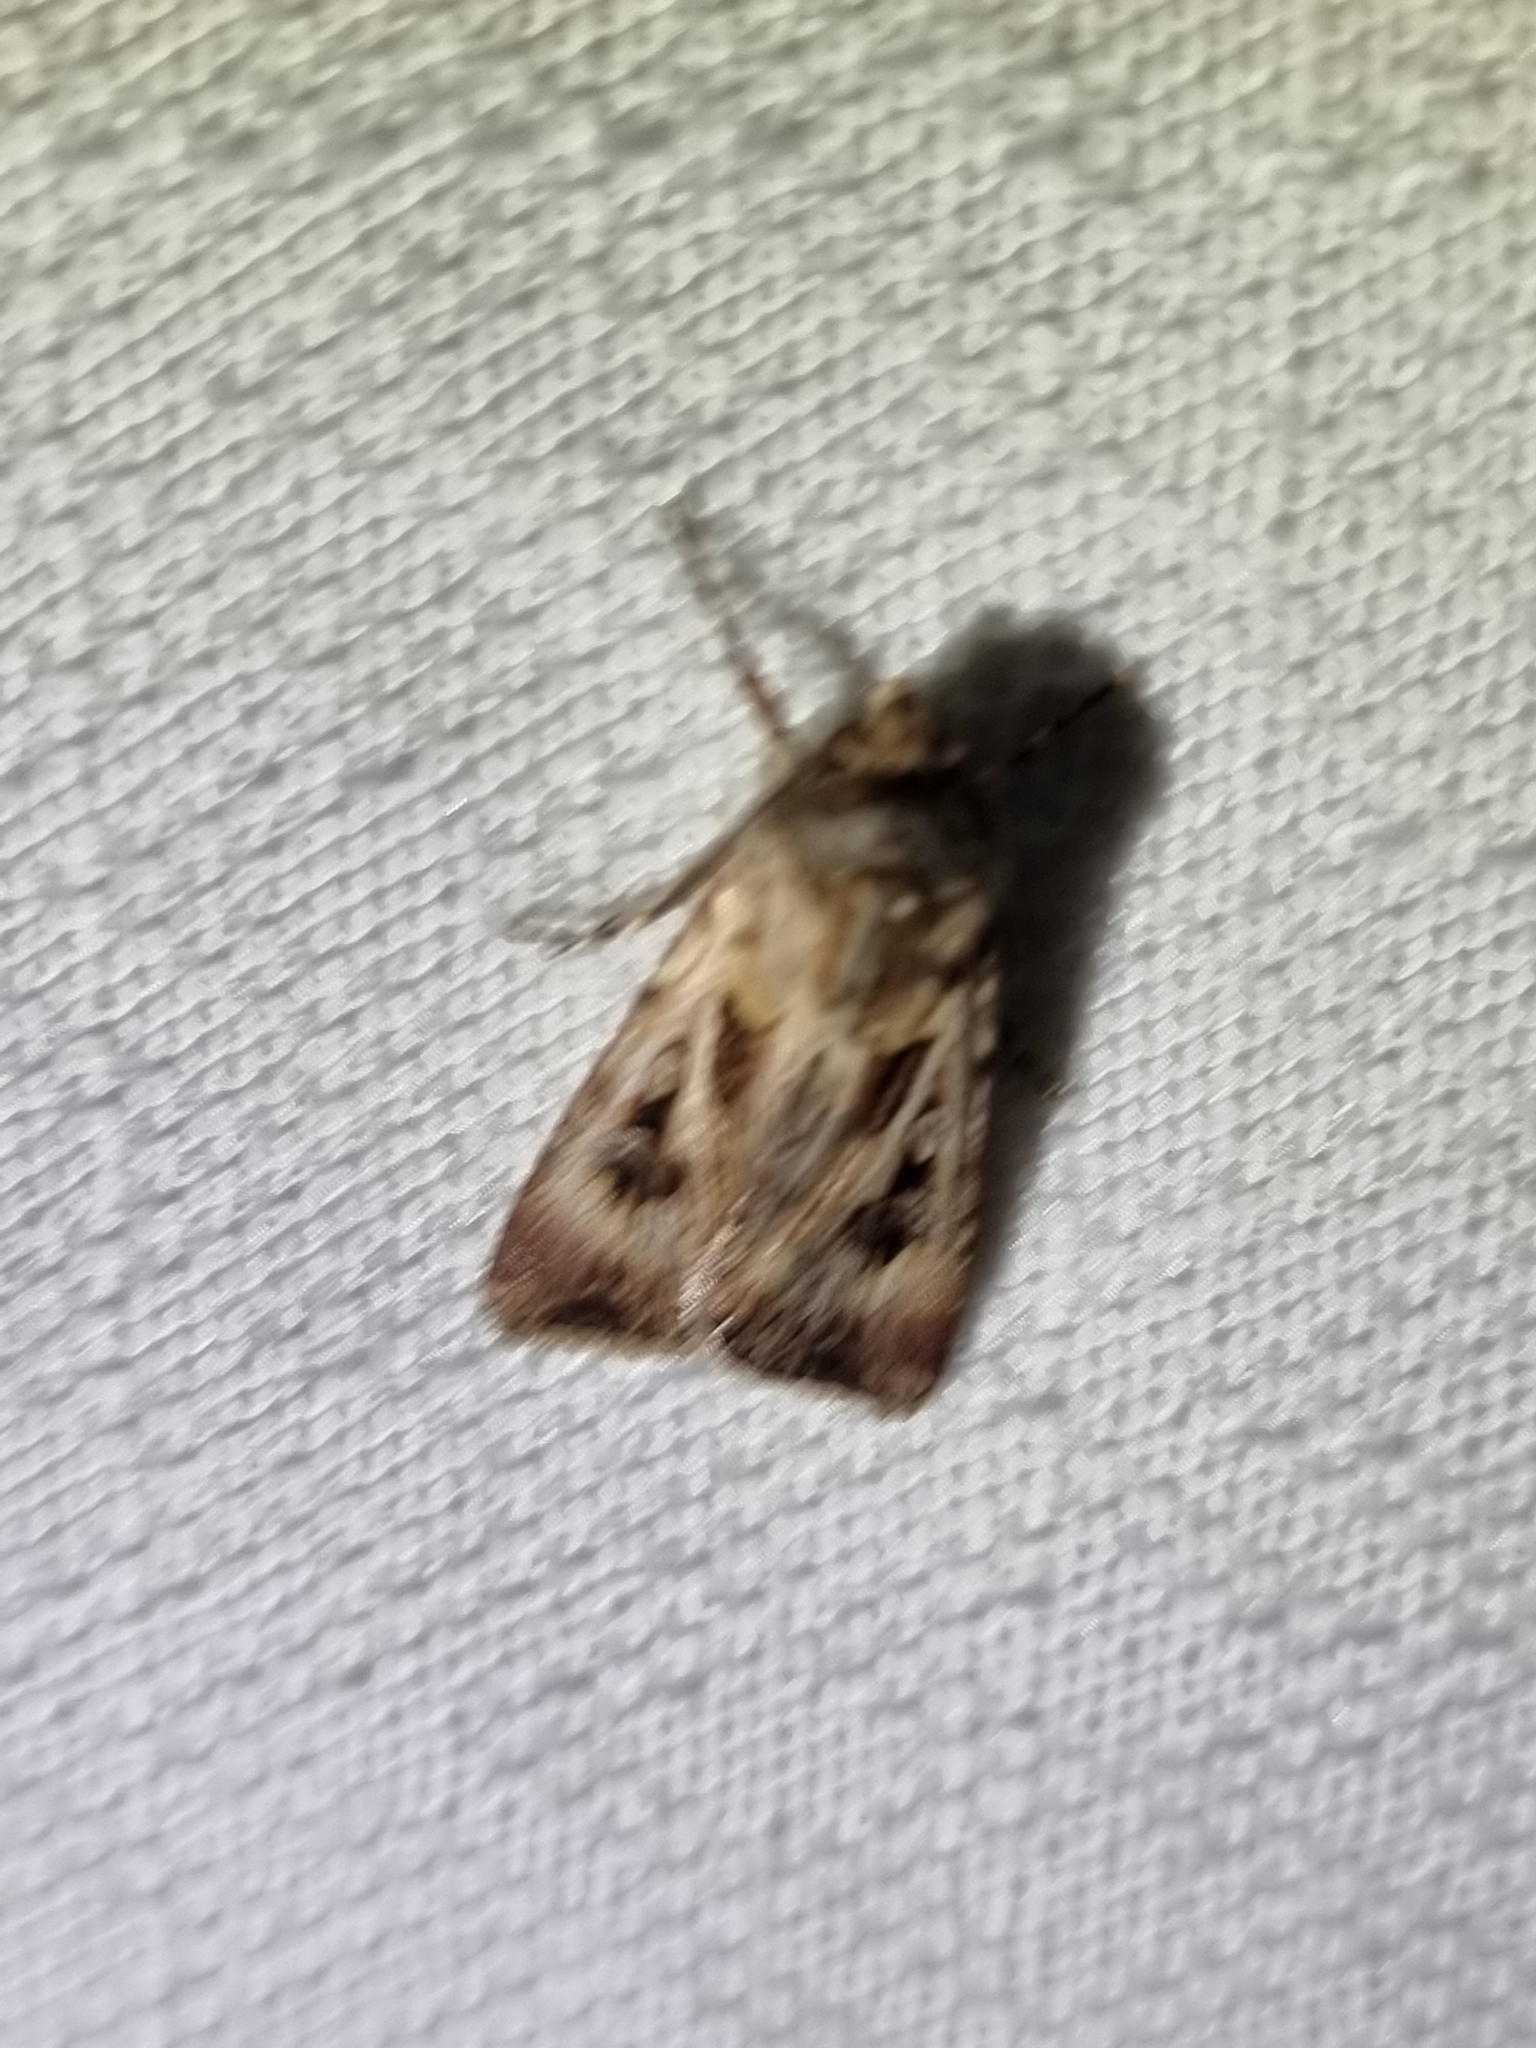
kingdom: Animalia
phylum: Arthropoda
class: Insecta
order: Lepidoptera
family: Noctuidae
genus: Agrotis
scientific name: Agrotis munda
